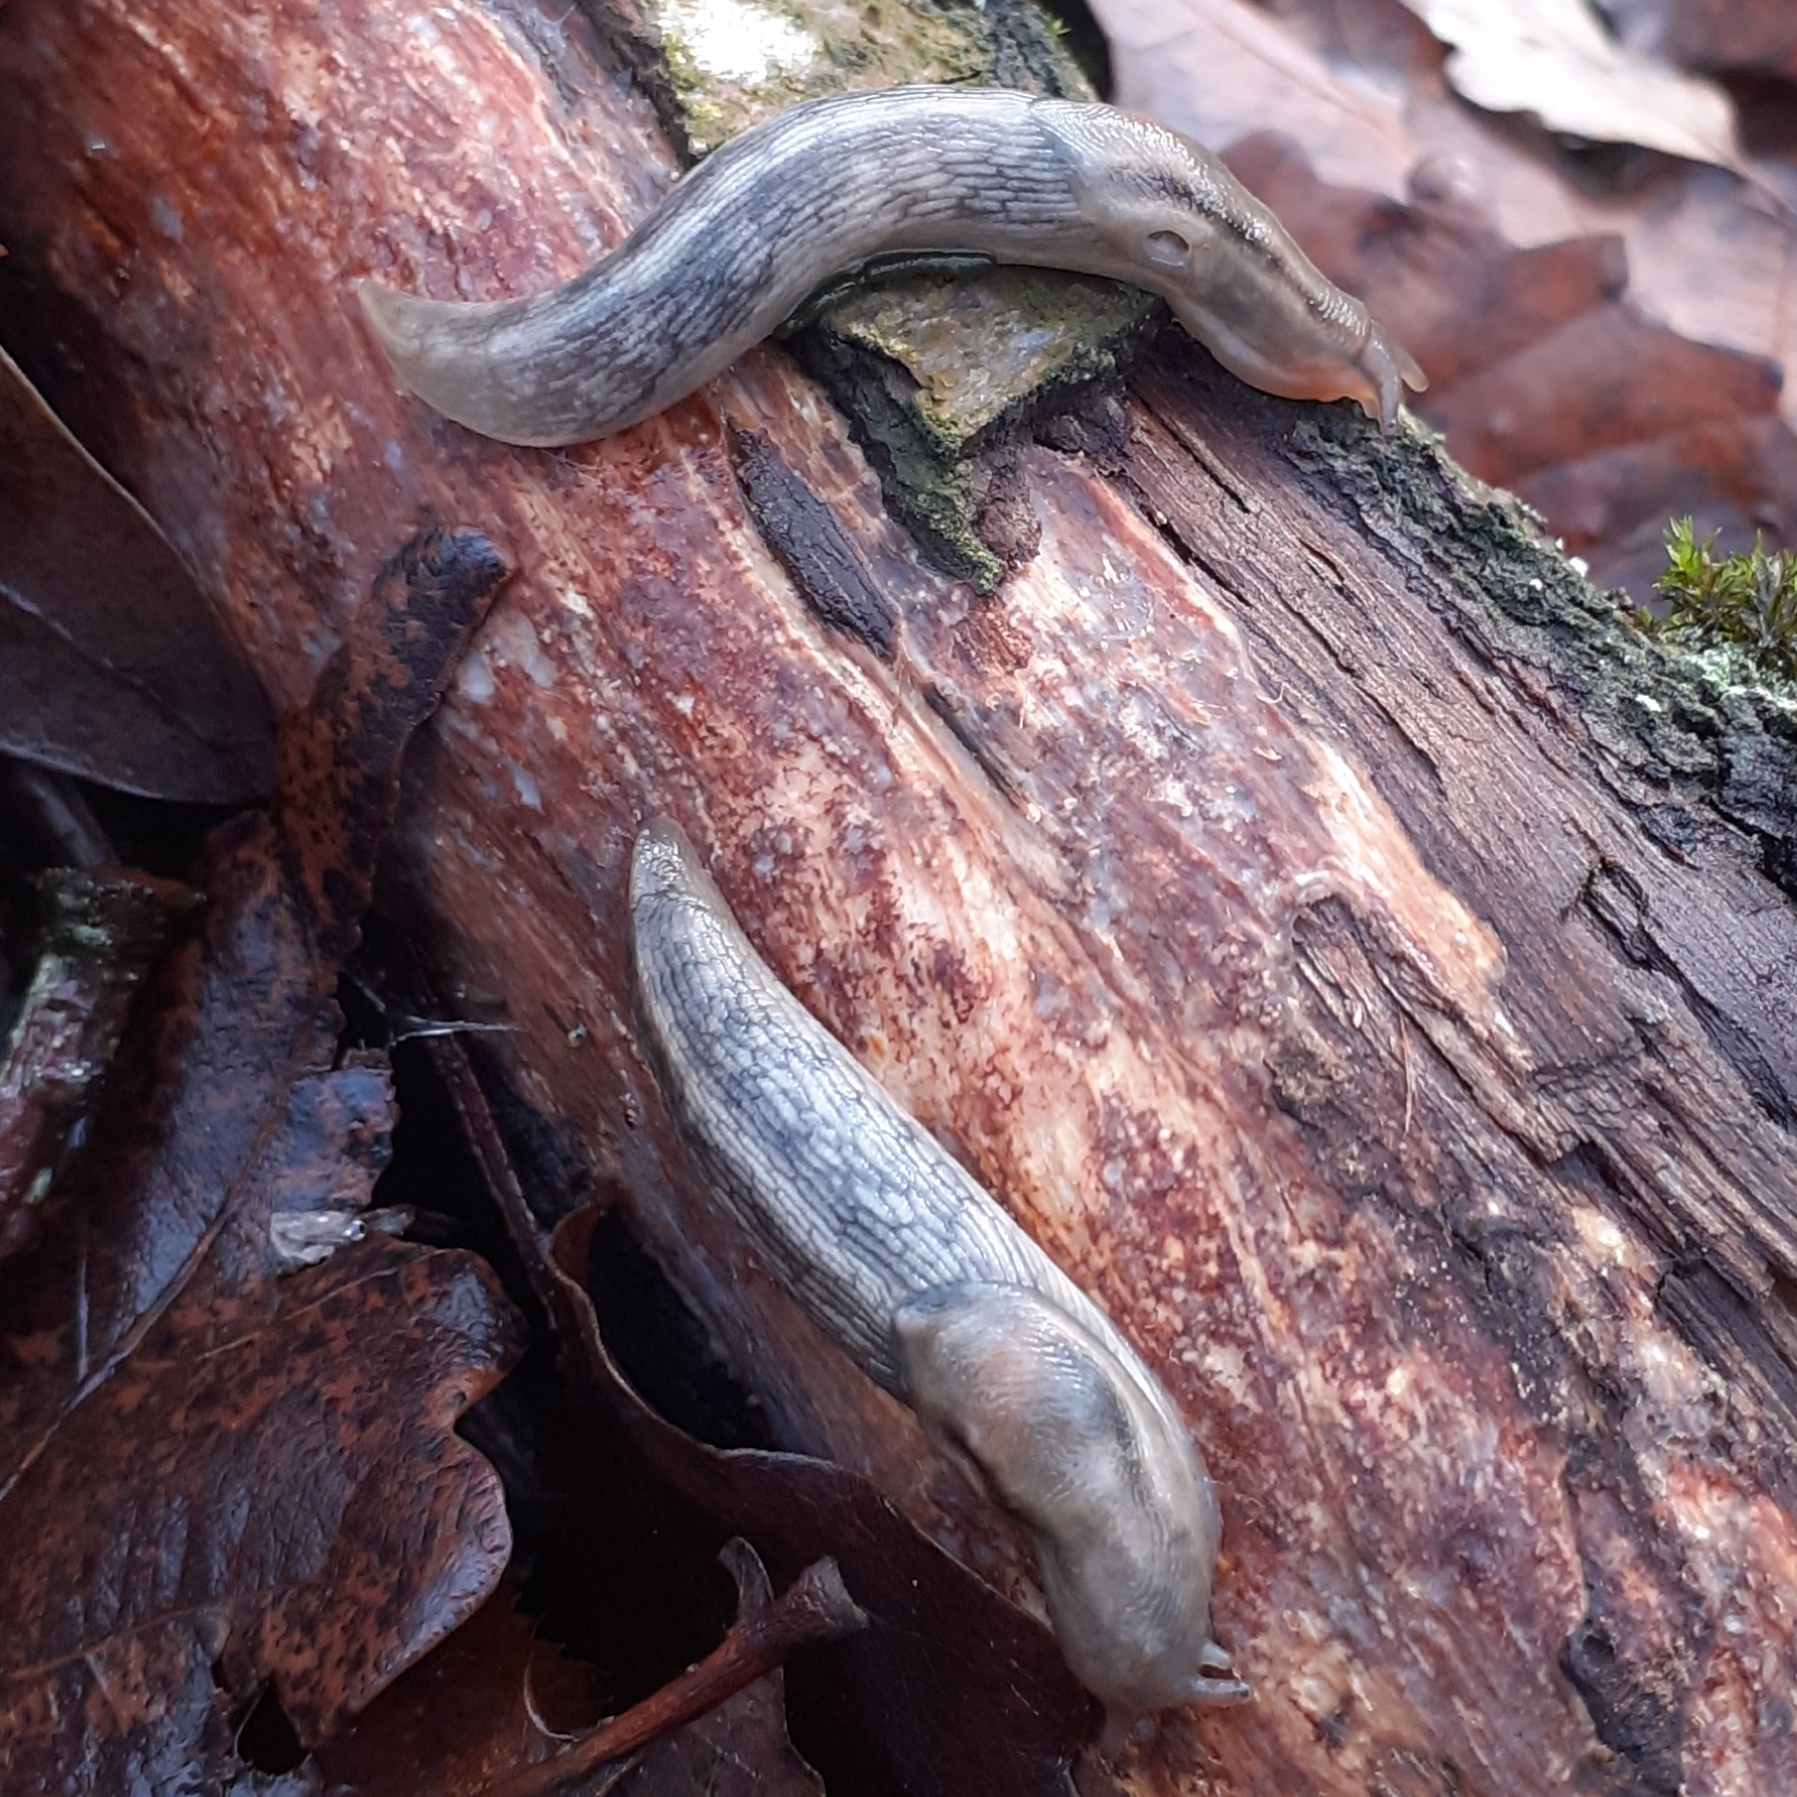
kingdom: Animalia
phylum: Mollusca
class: Gastropoda
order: Stylommatophora
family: Limacidae
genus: Lehmannia
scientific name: Lehmannia marginata
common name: Tree slug
